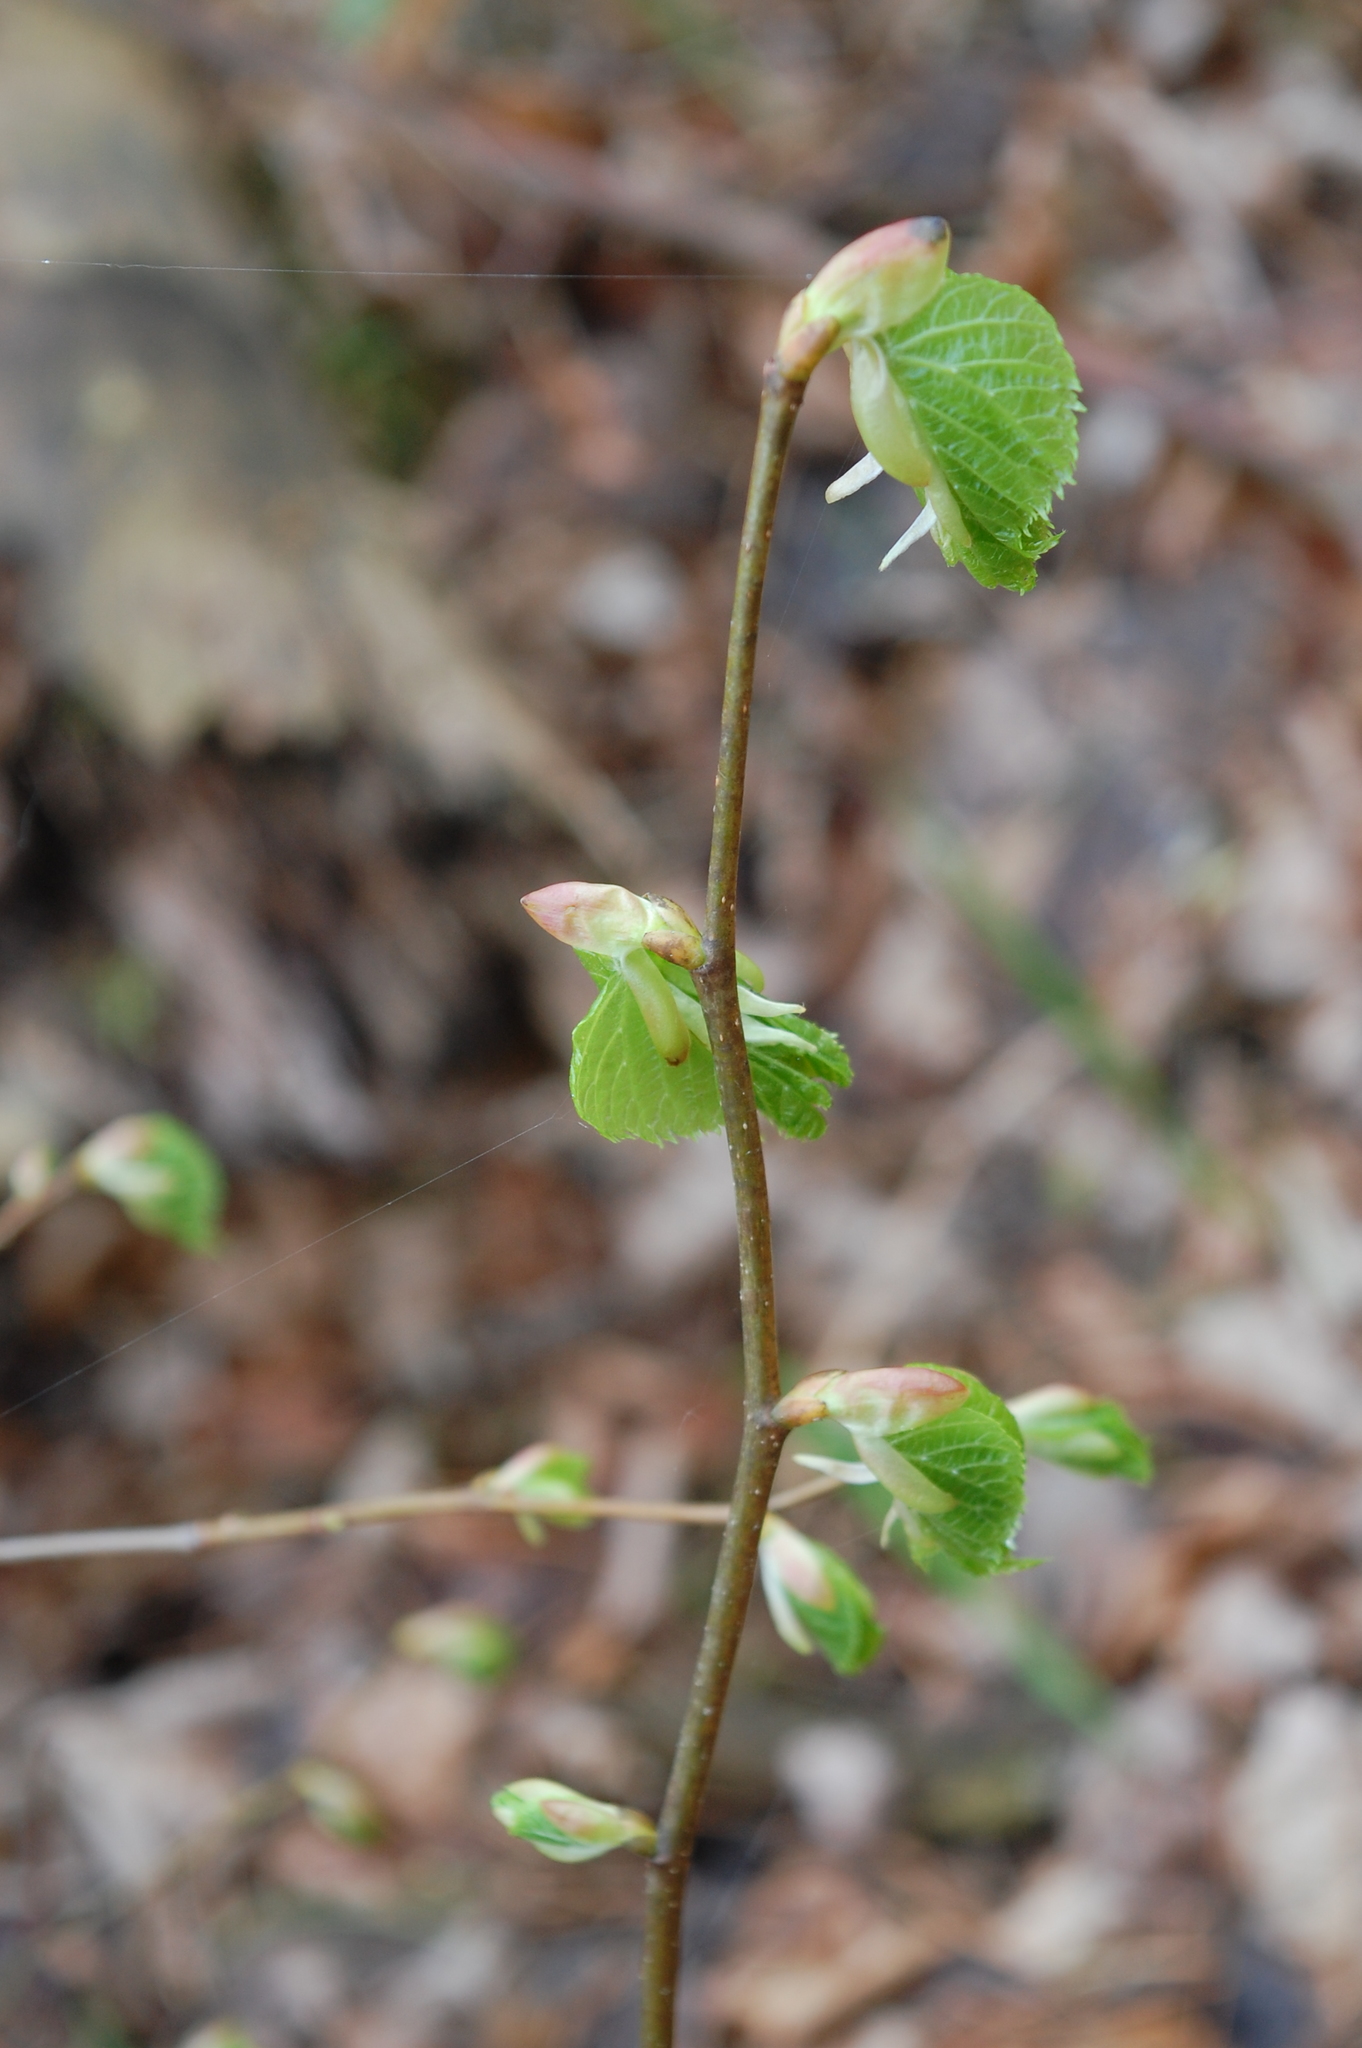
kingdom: Plantae
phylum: Tracheophyta
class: Magnoliopsida
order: Malvales
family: Malvaceae
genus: Tilia
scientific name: Tilia cordata
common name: Small-leaved lime
